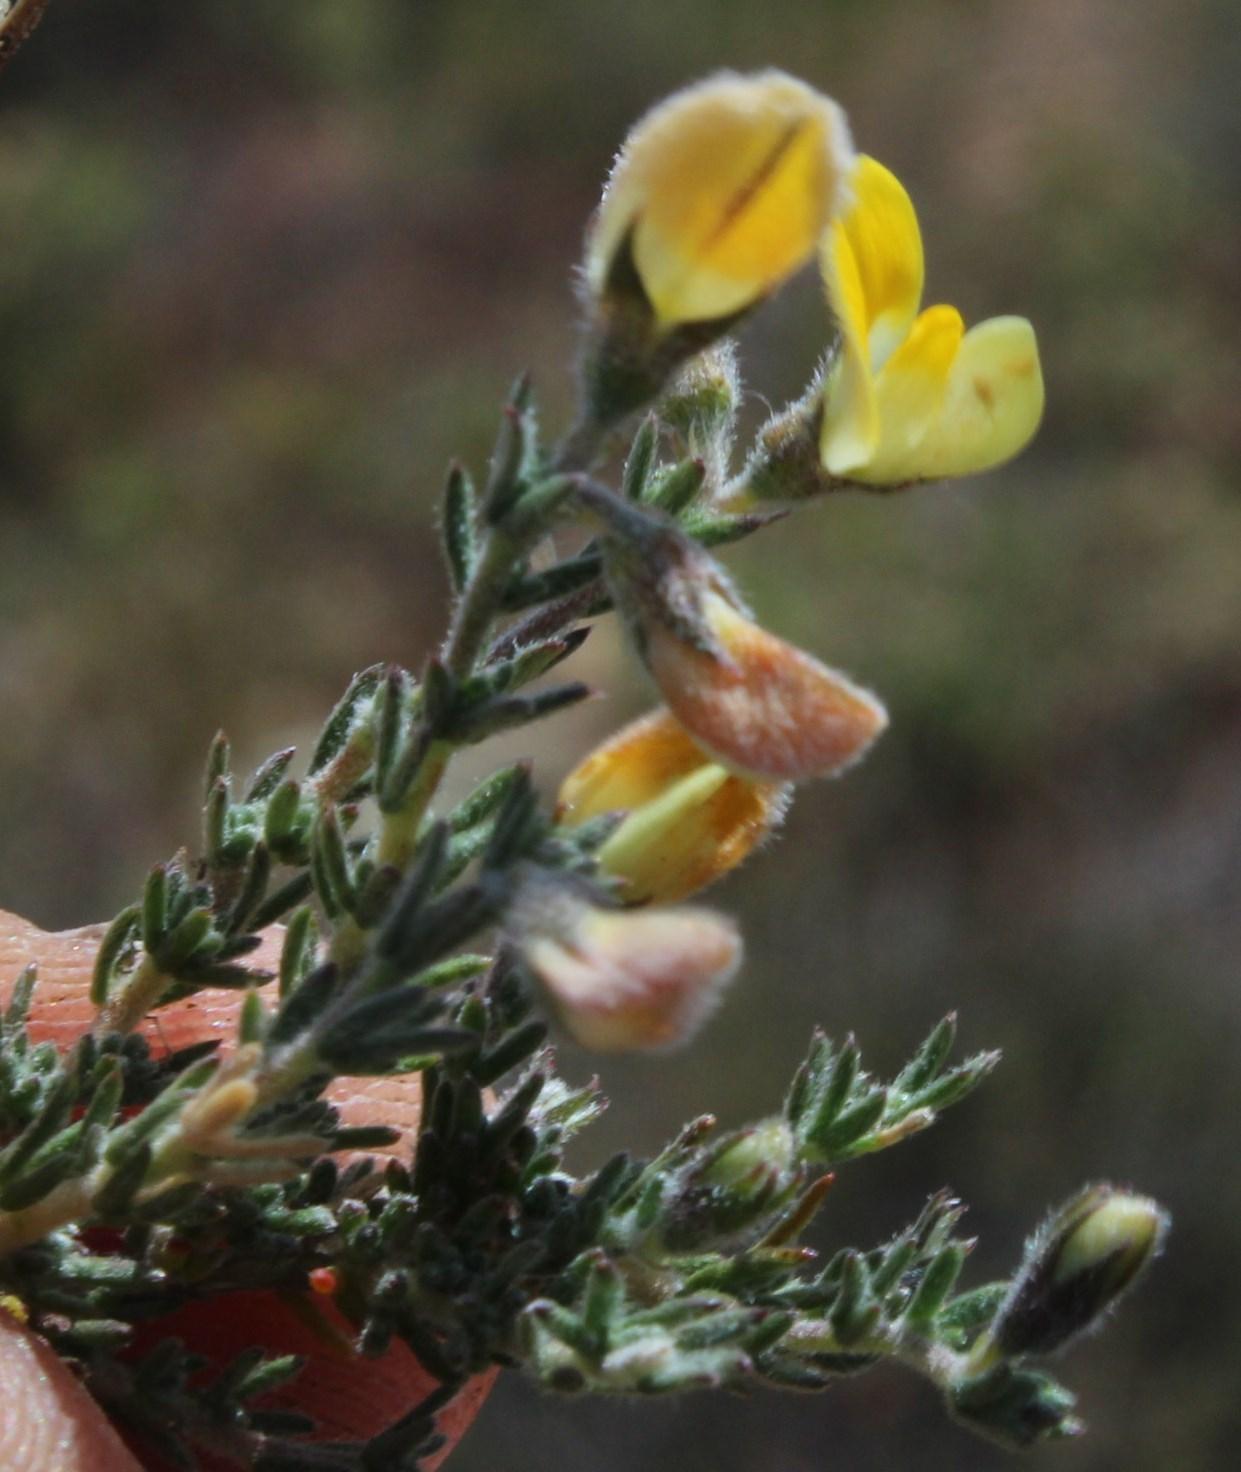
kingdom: Plantae
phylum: Tracheophyta
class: Magnoliopsida
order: Fabales
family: Fabaceae
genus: Aspalathus
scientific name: Aspalathus wittebergensis
